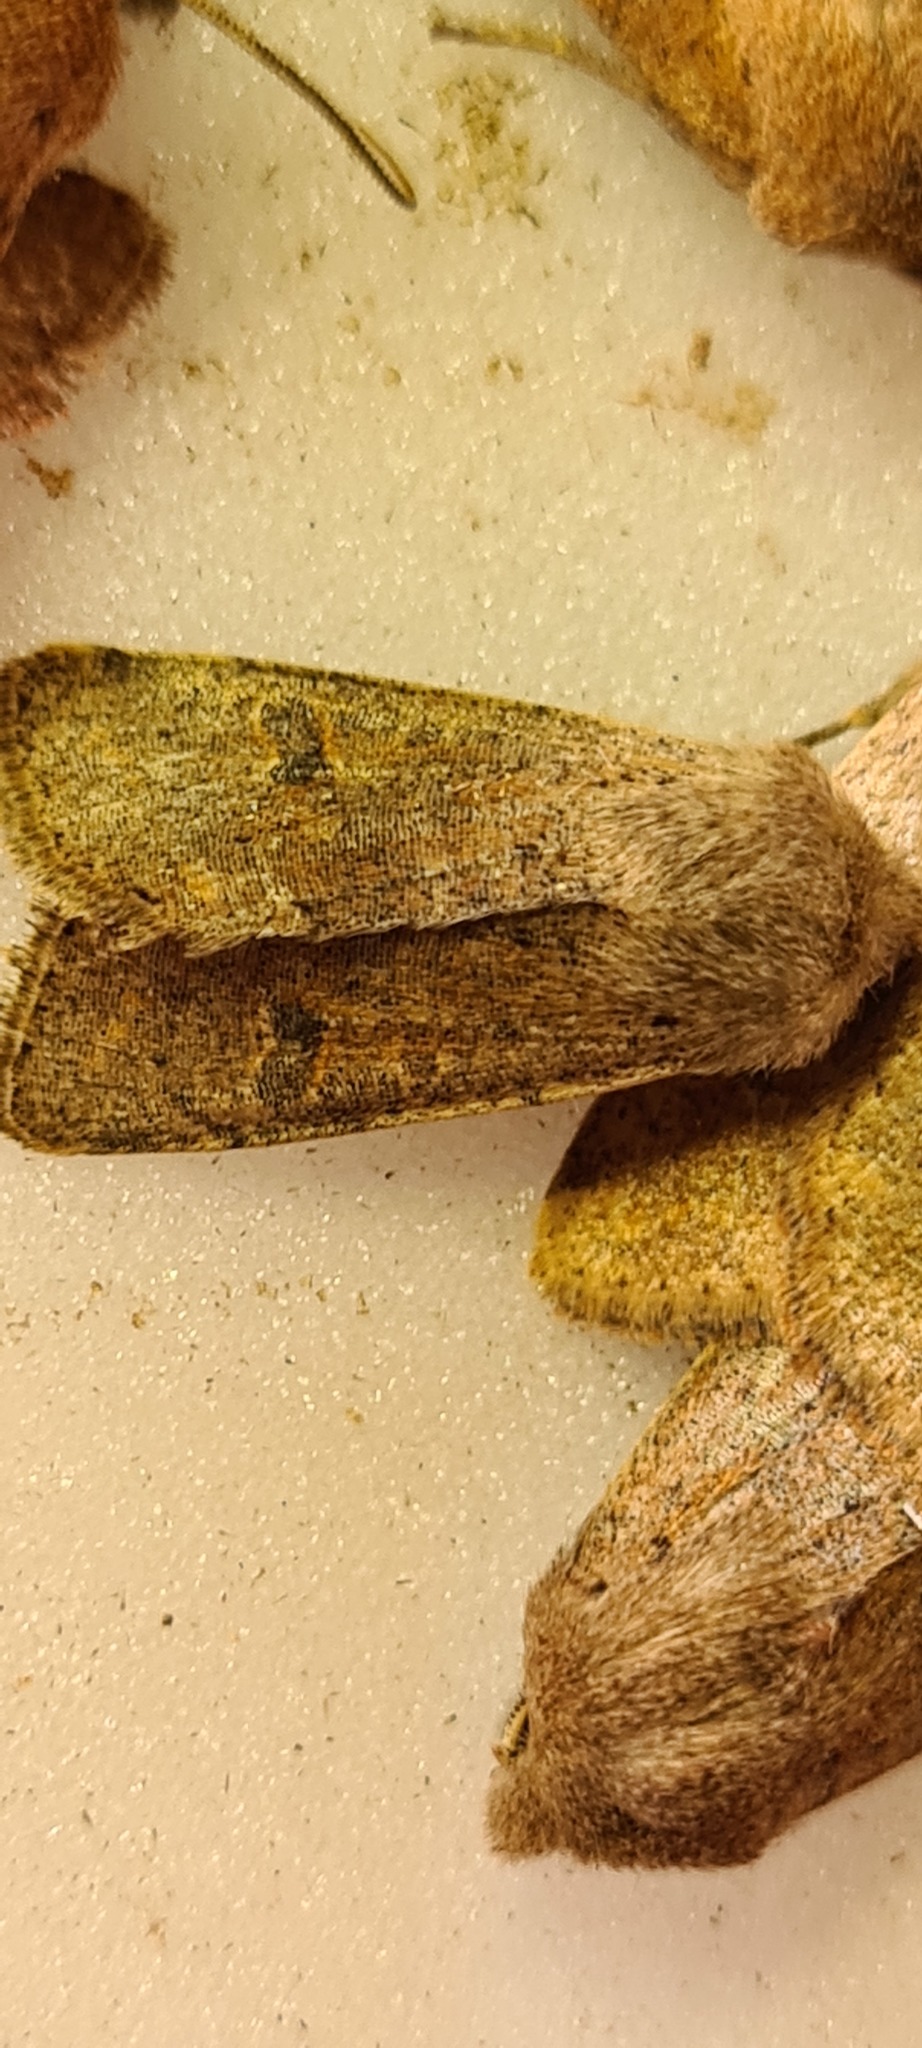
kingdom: Animalia
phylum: Arthropoda
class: Insecta
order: Lepidoptera
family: Noctuidae
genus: Orthosia
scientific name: Orthosia cruda
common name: Small quaker
